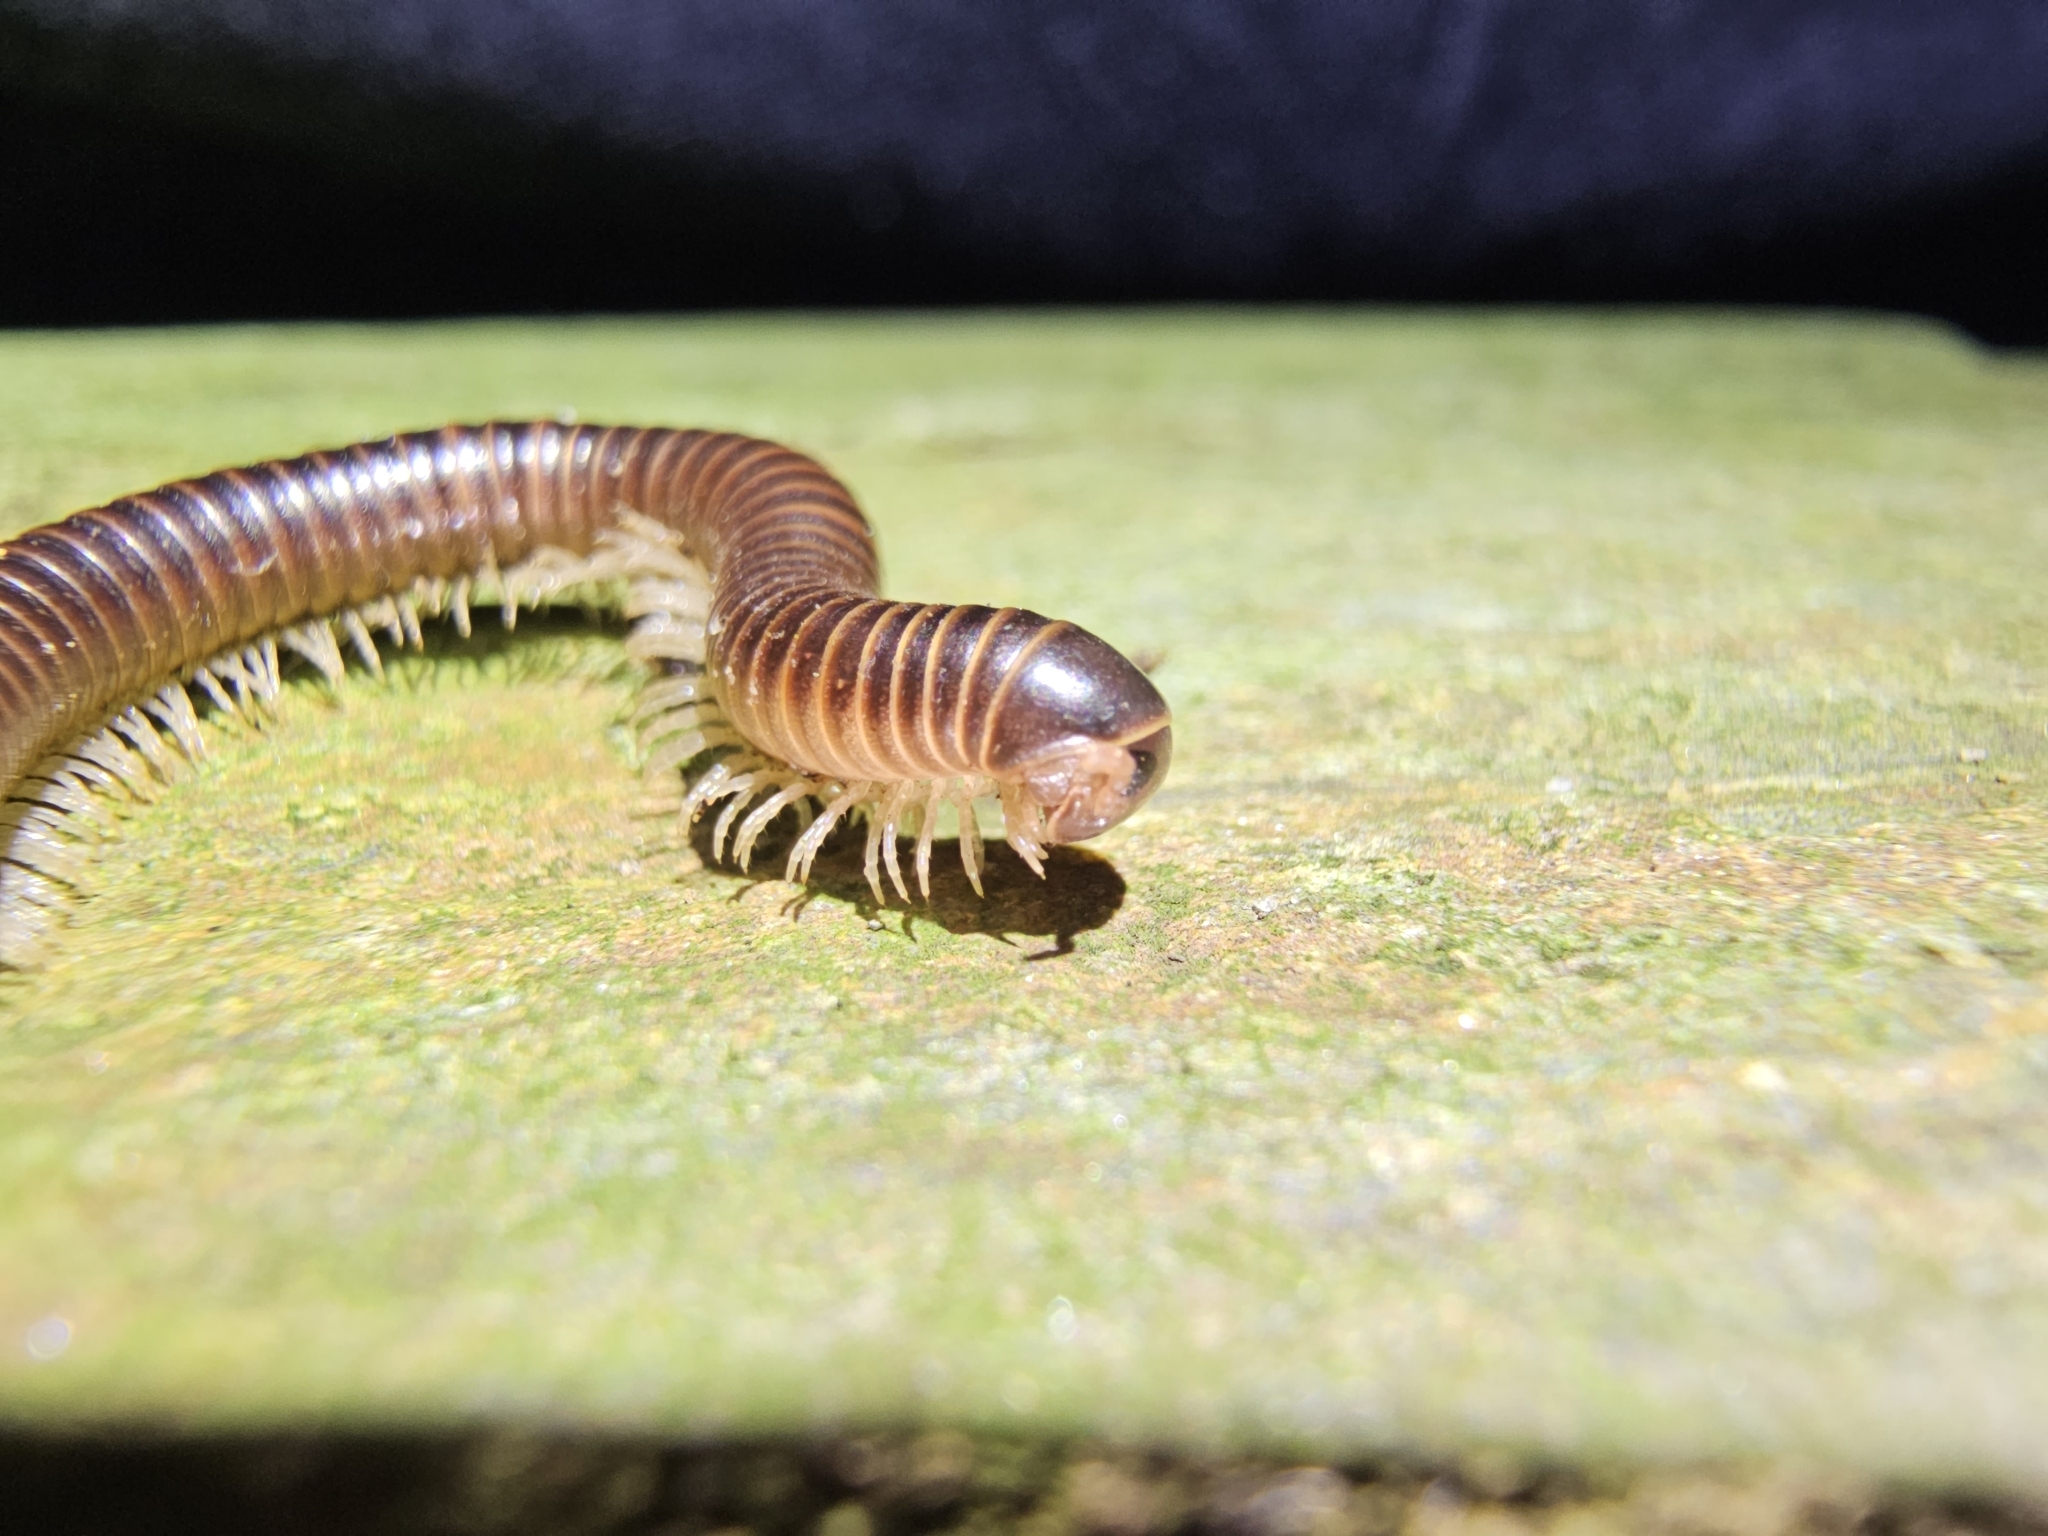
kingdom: Animalia
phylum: Arthropoda
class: Diplopoda
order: Spirobolida
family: Pachybolidae
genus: Leptogoniulus
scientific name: Leptogoniulus sorornus
